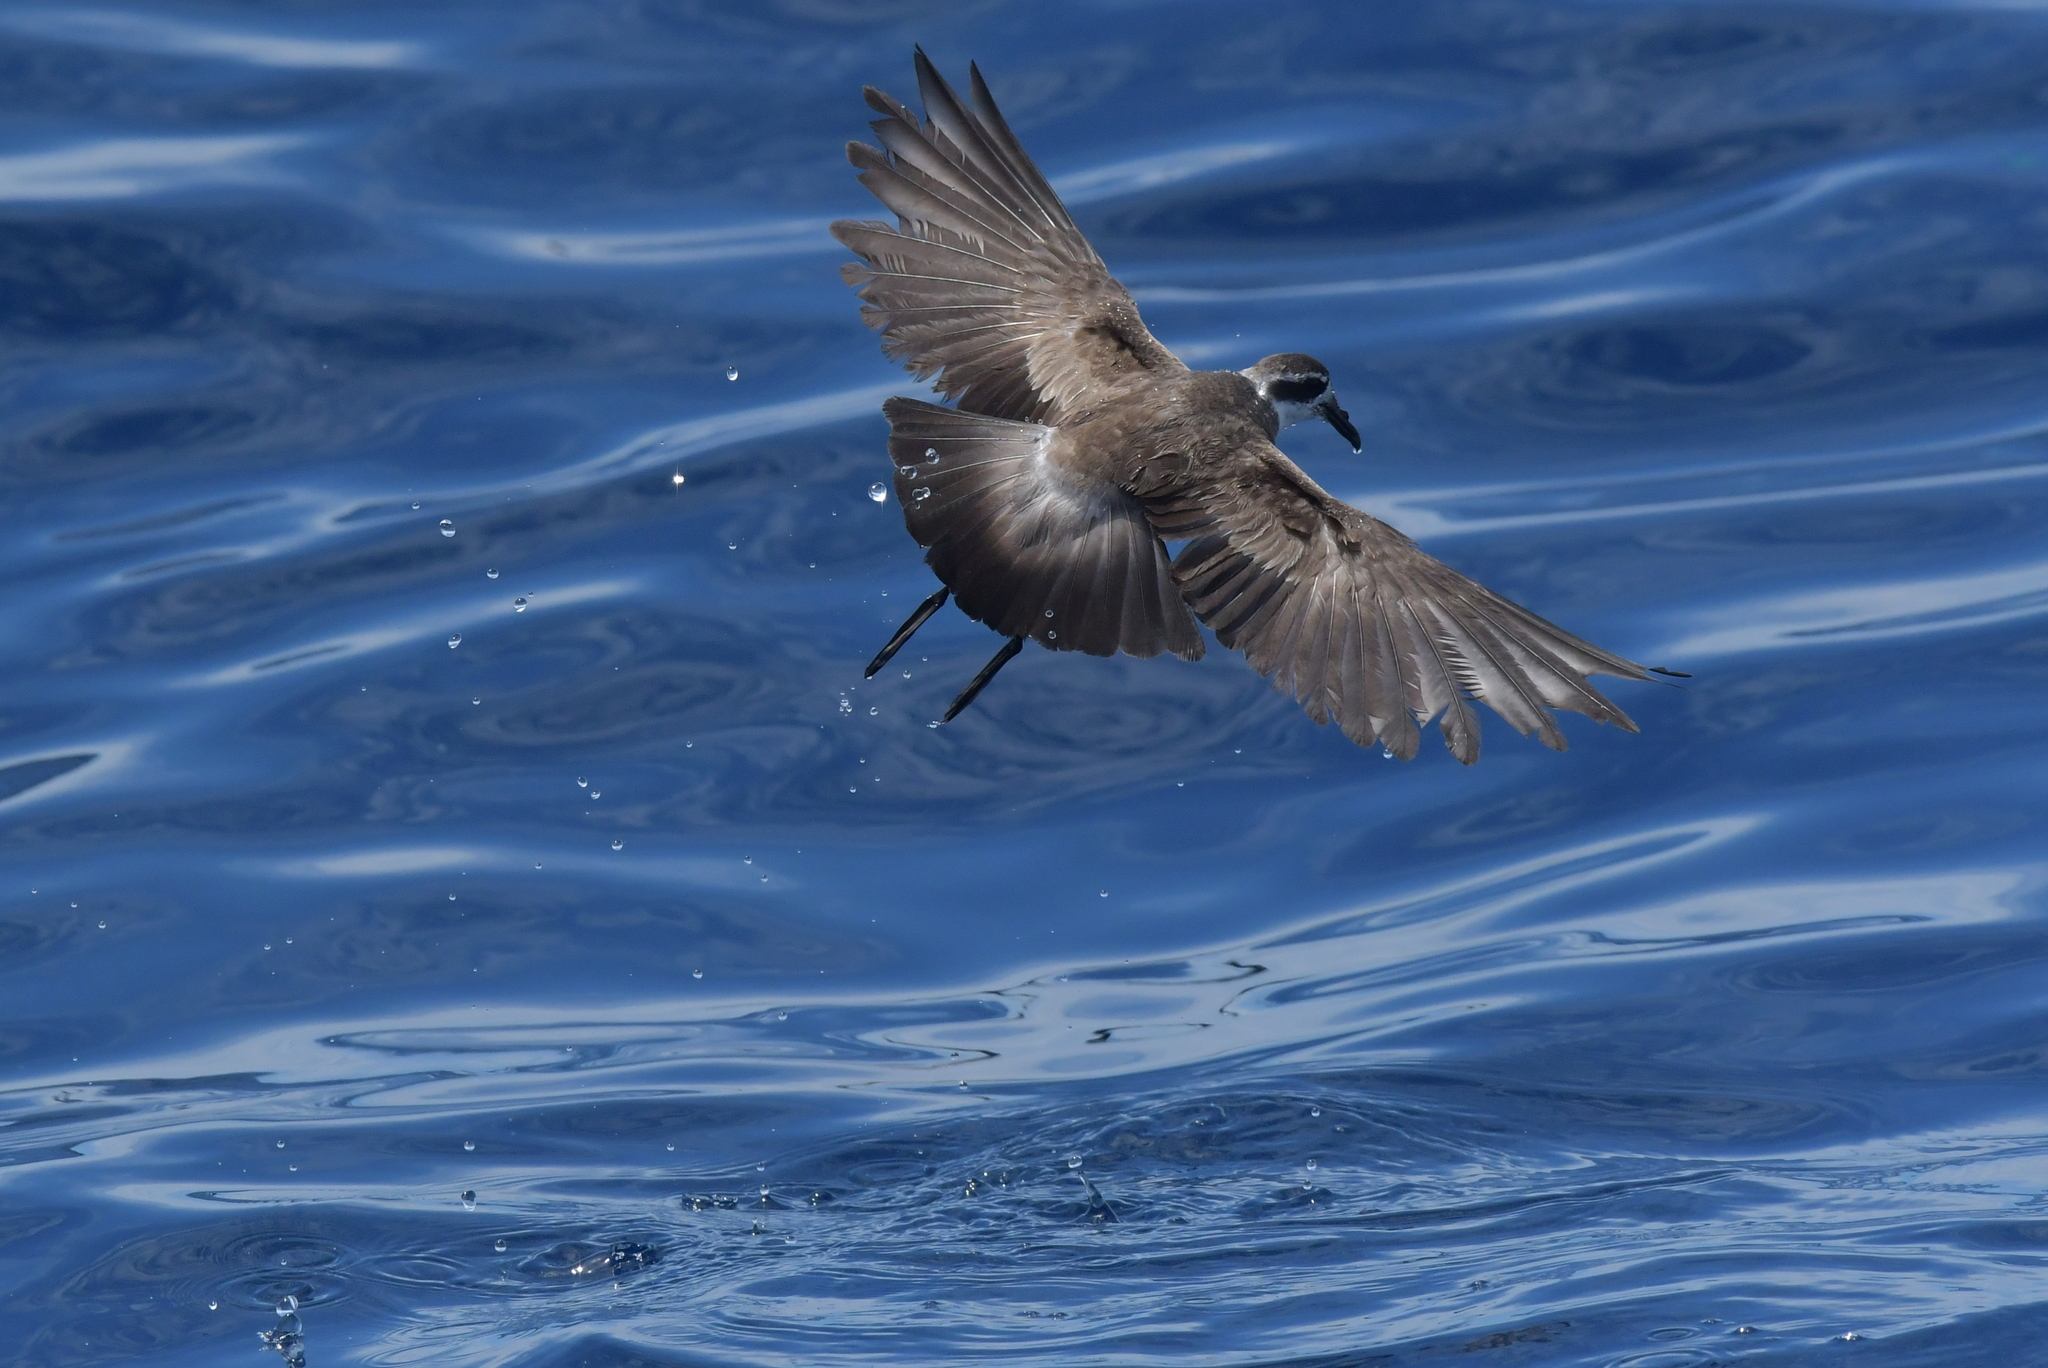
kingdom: Animalia
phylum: Chordata
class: Aves
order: Procellariiformes
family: Hydrobatidae
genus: Pelagodroma
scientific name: Pelagodroma marina
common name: White-faced storm-petrel
